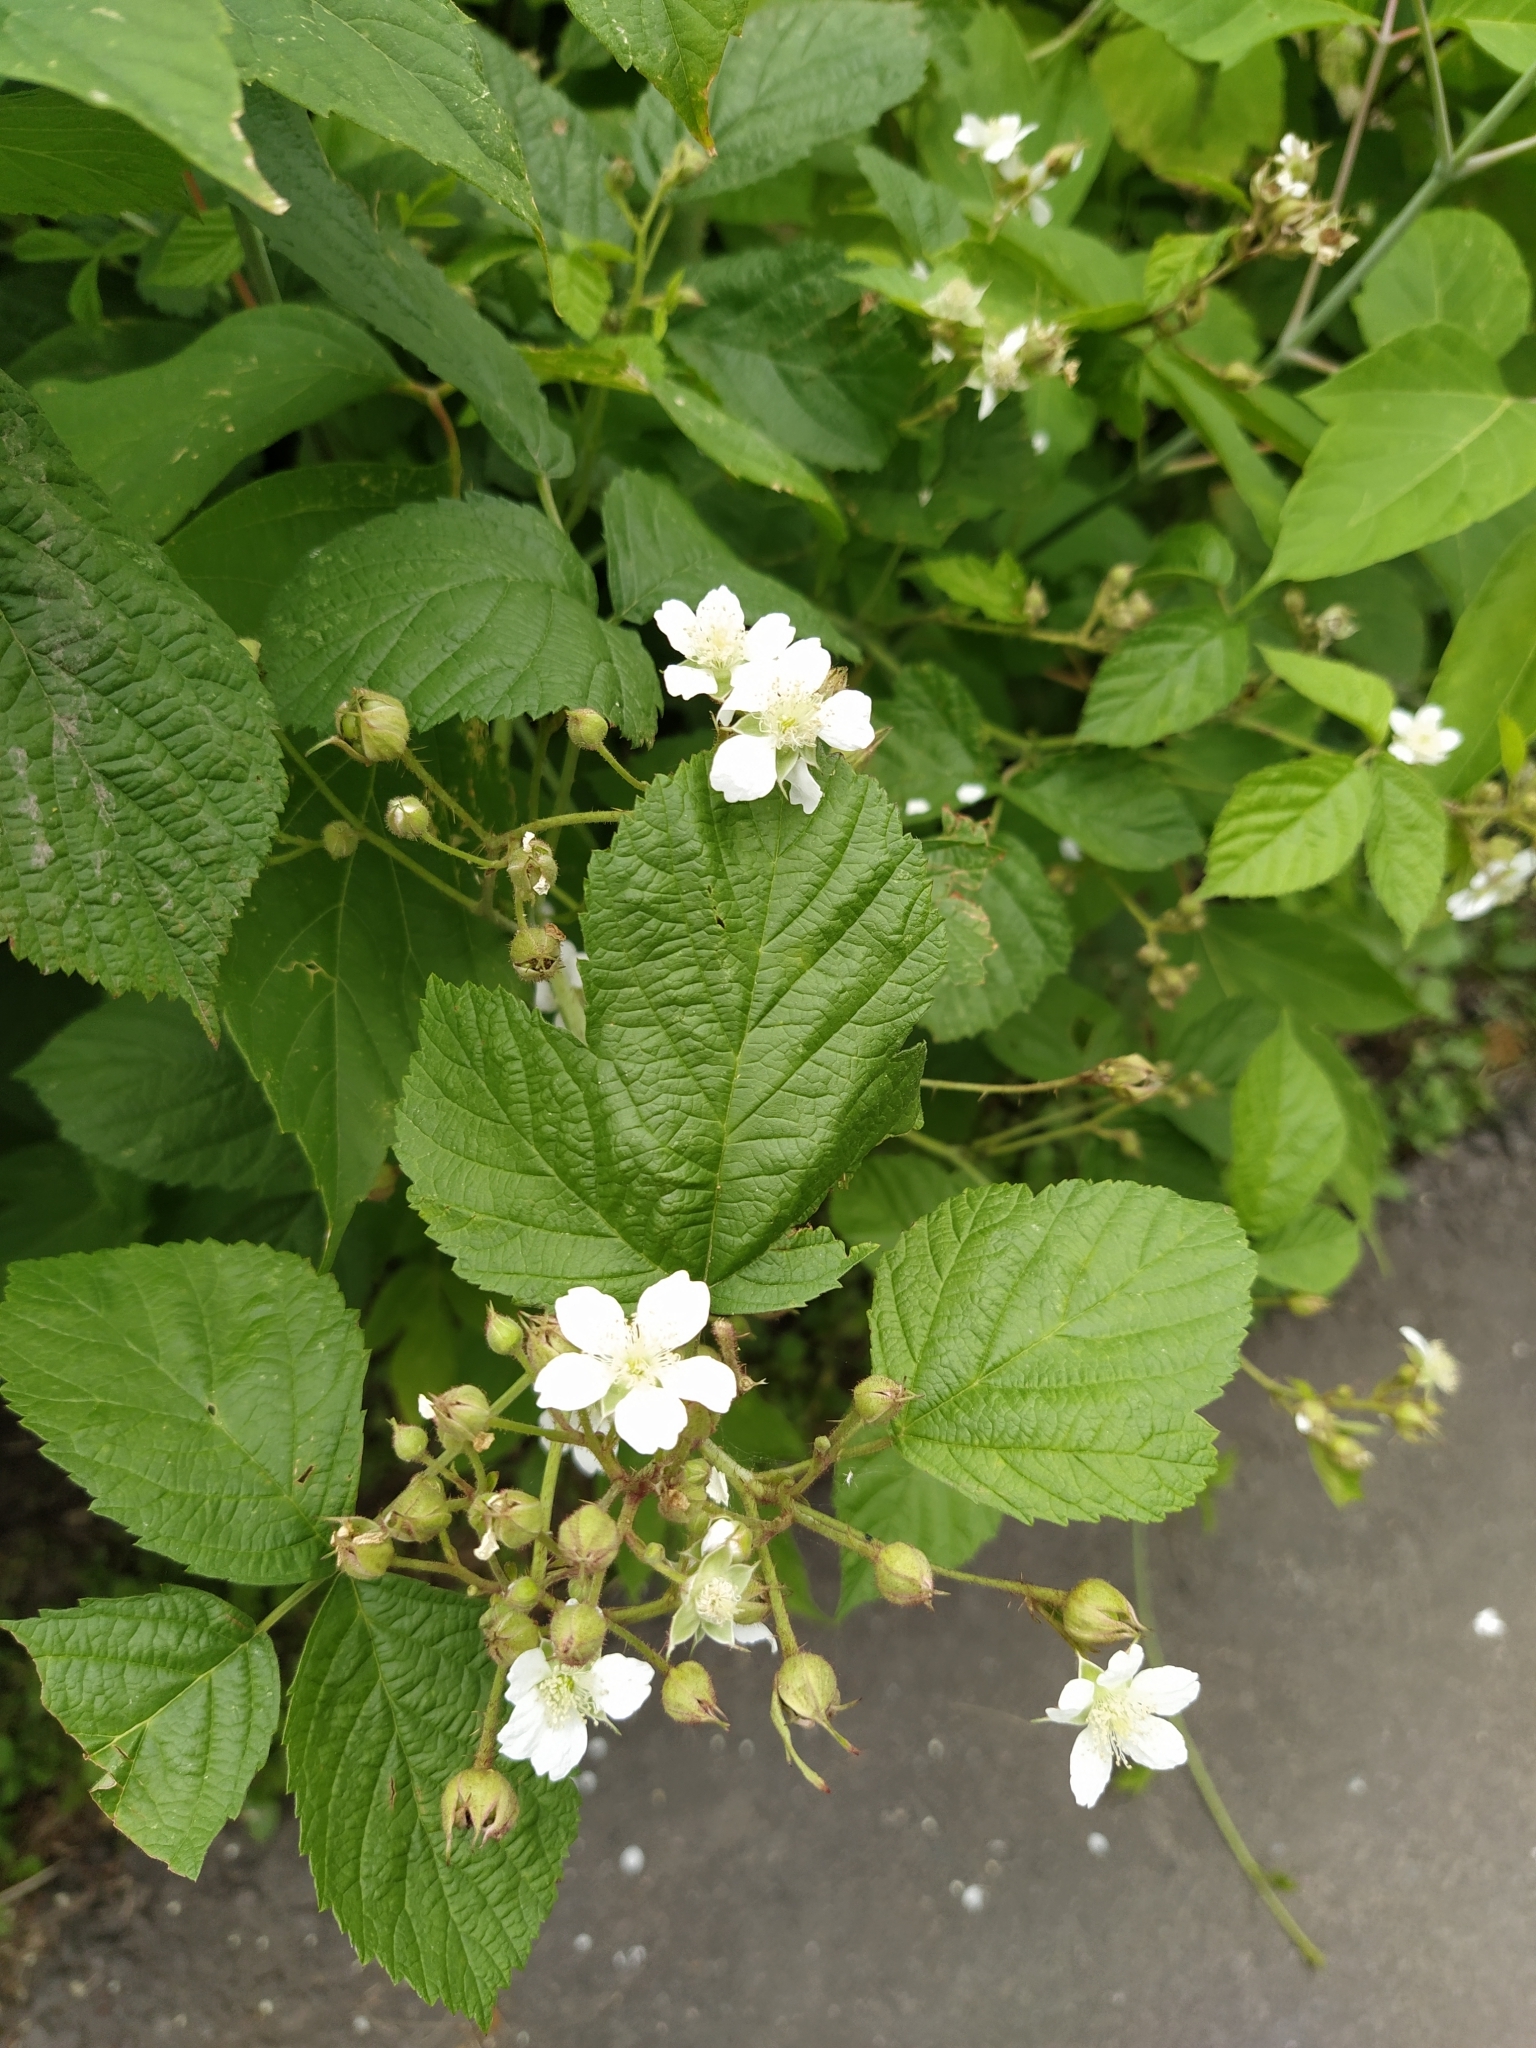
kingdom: Plantae
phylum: Tracheophyta
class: Magnoliopsida
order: Rosales
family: Rosaceae
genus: Rubus
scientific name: Rubus caesius
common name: Dewberry
